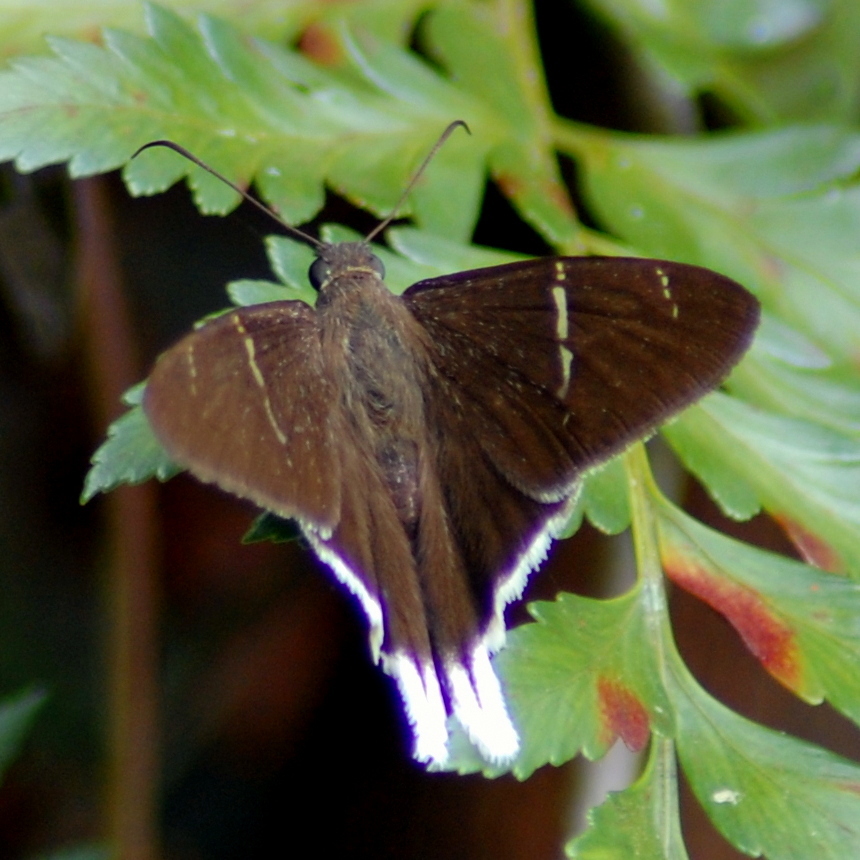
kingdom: Animalia
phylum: Arthropoda
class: Insecta
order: Lepidoptera
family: Hesperiidae
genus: Achalarus
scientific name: Achalarus
